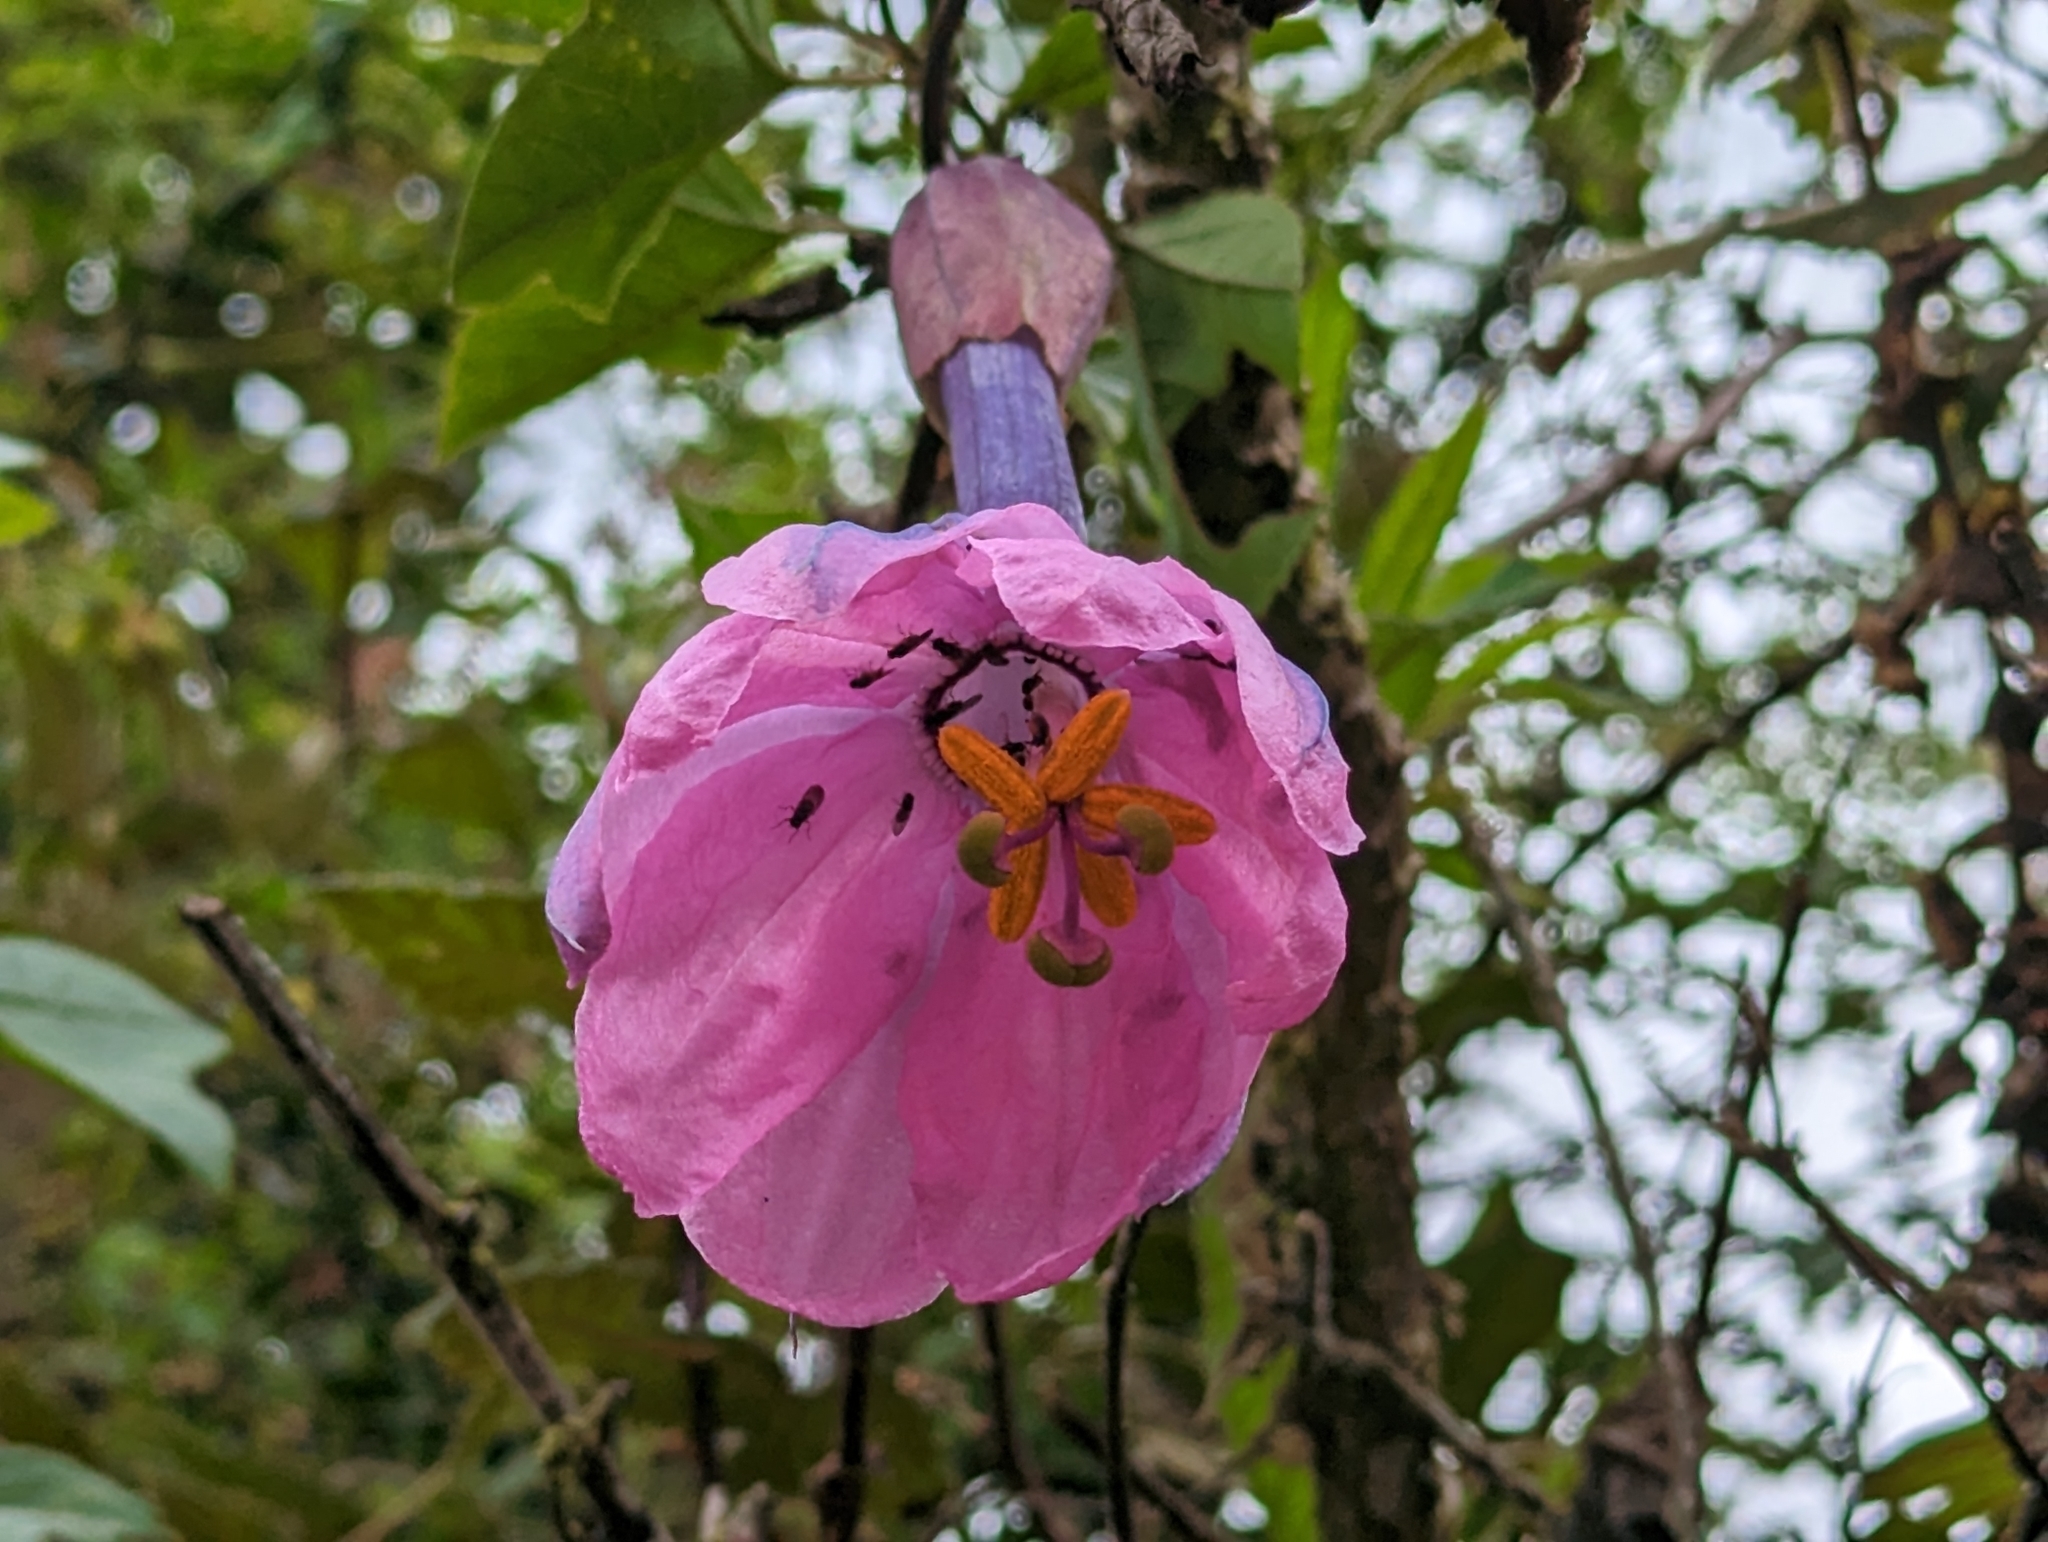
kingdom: Plantae
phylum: Tracheophyta
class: Magnoliopsida
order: Malpighiales
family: Passifloraceae
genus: Passiflora
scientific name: Passiflora cumbalensis
